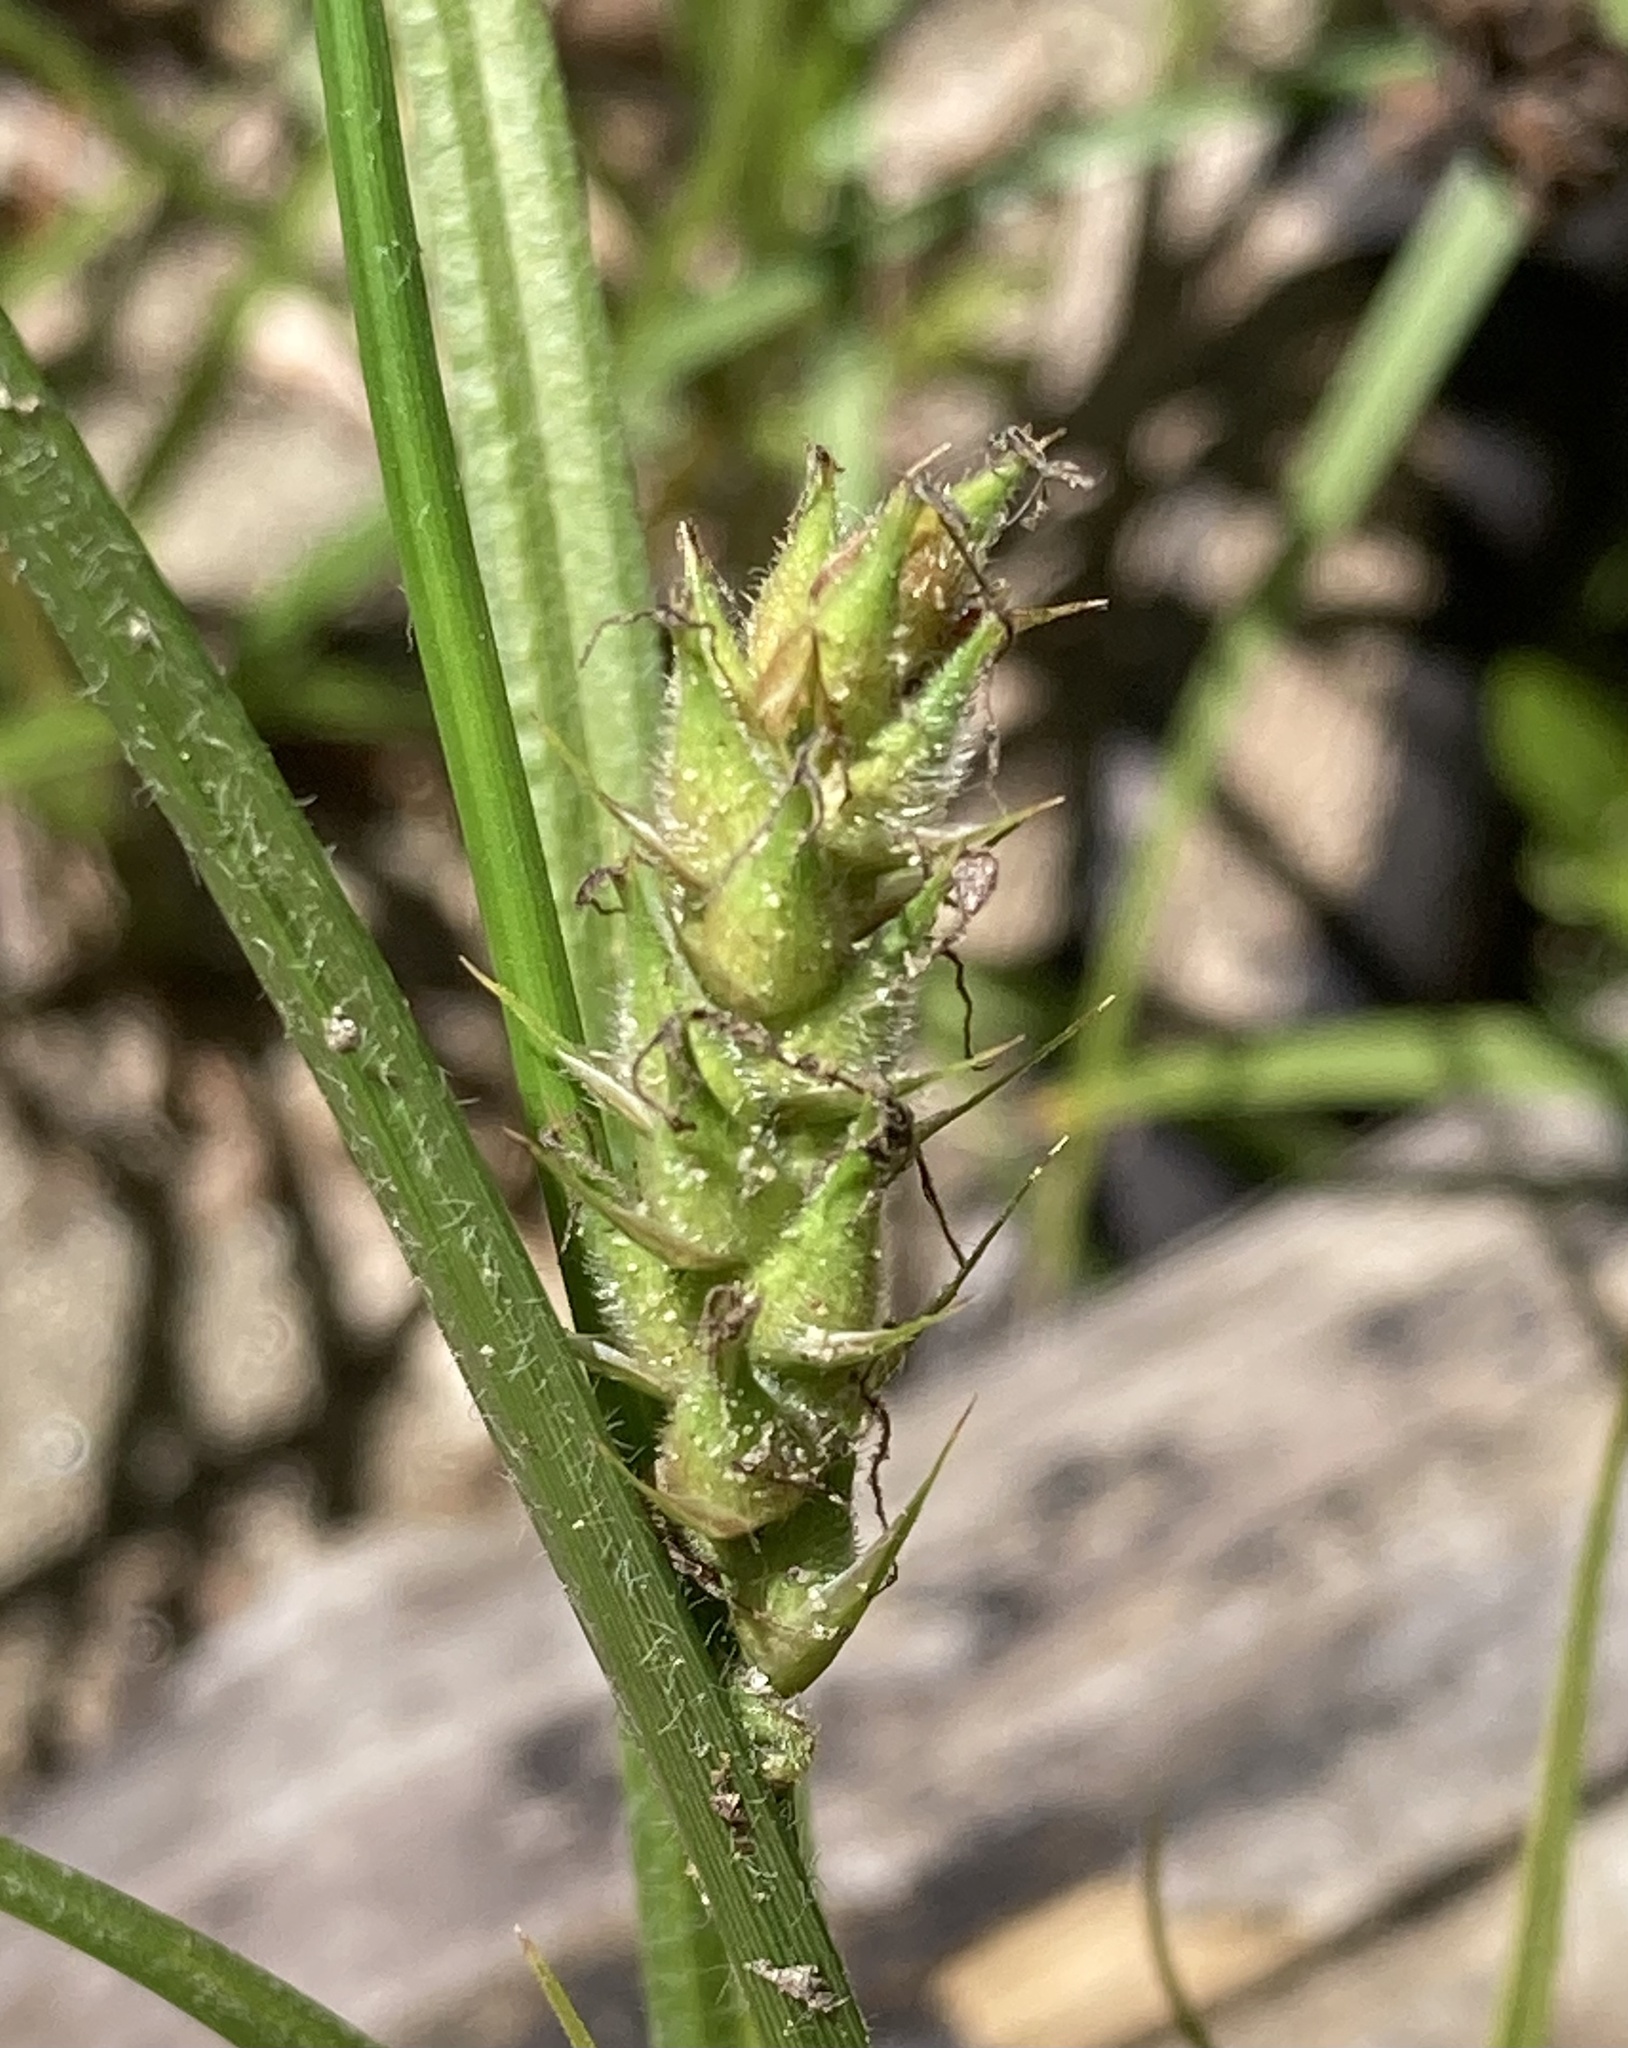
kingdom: Plantae
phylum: Tracheophyta
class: Liliopsida
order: Poales
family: Cyperaceae
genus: Carex
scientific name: Carex hirta
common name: Hairy sedge
